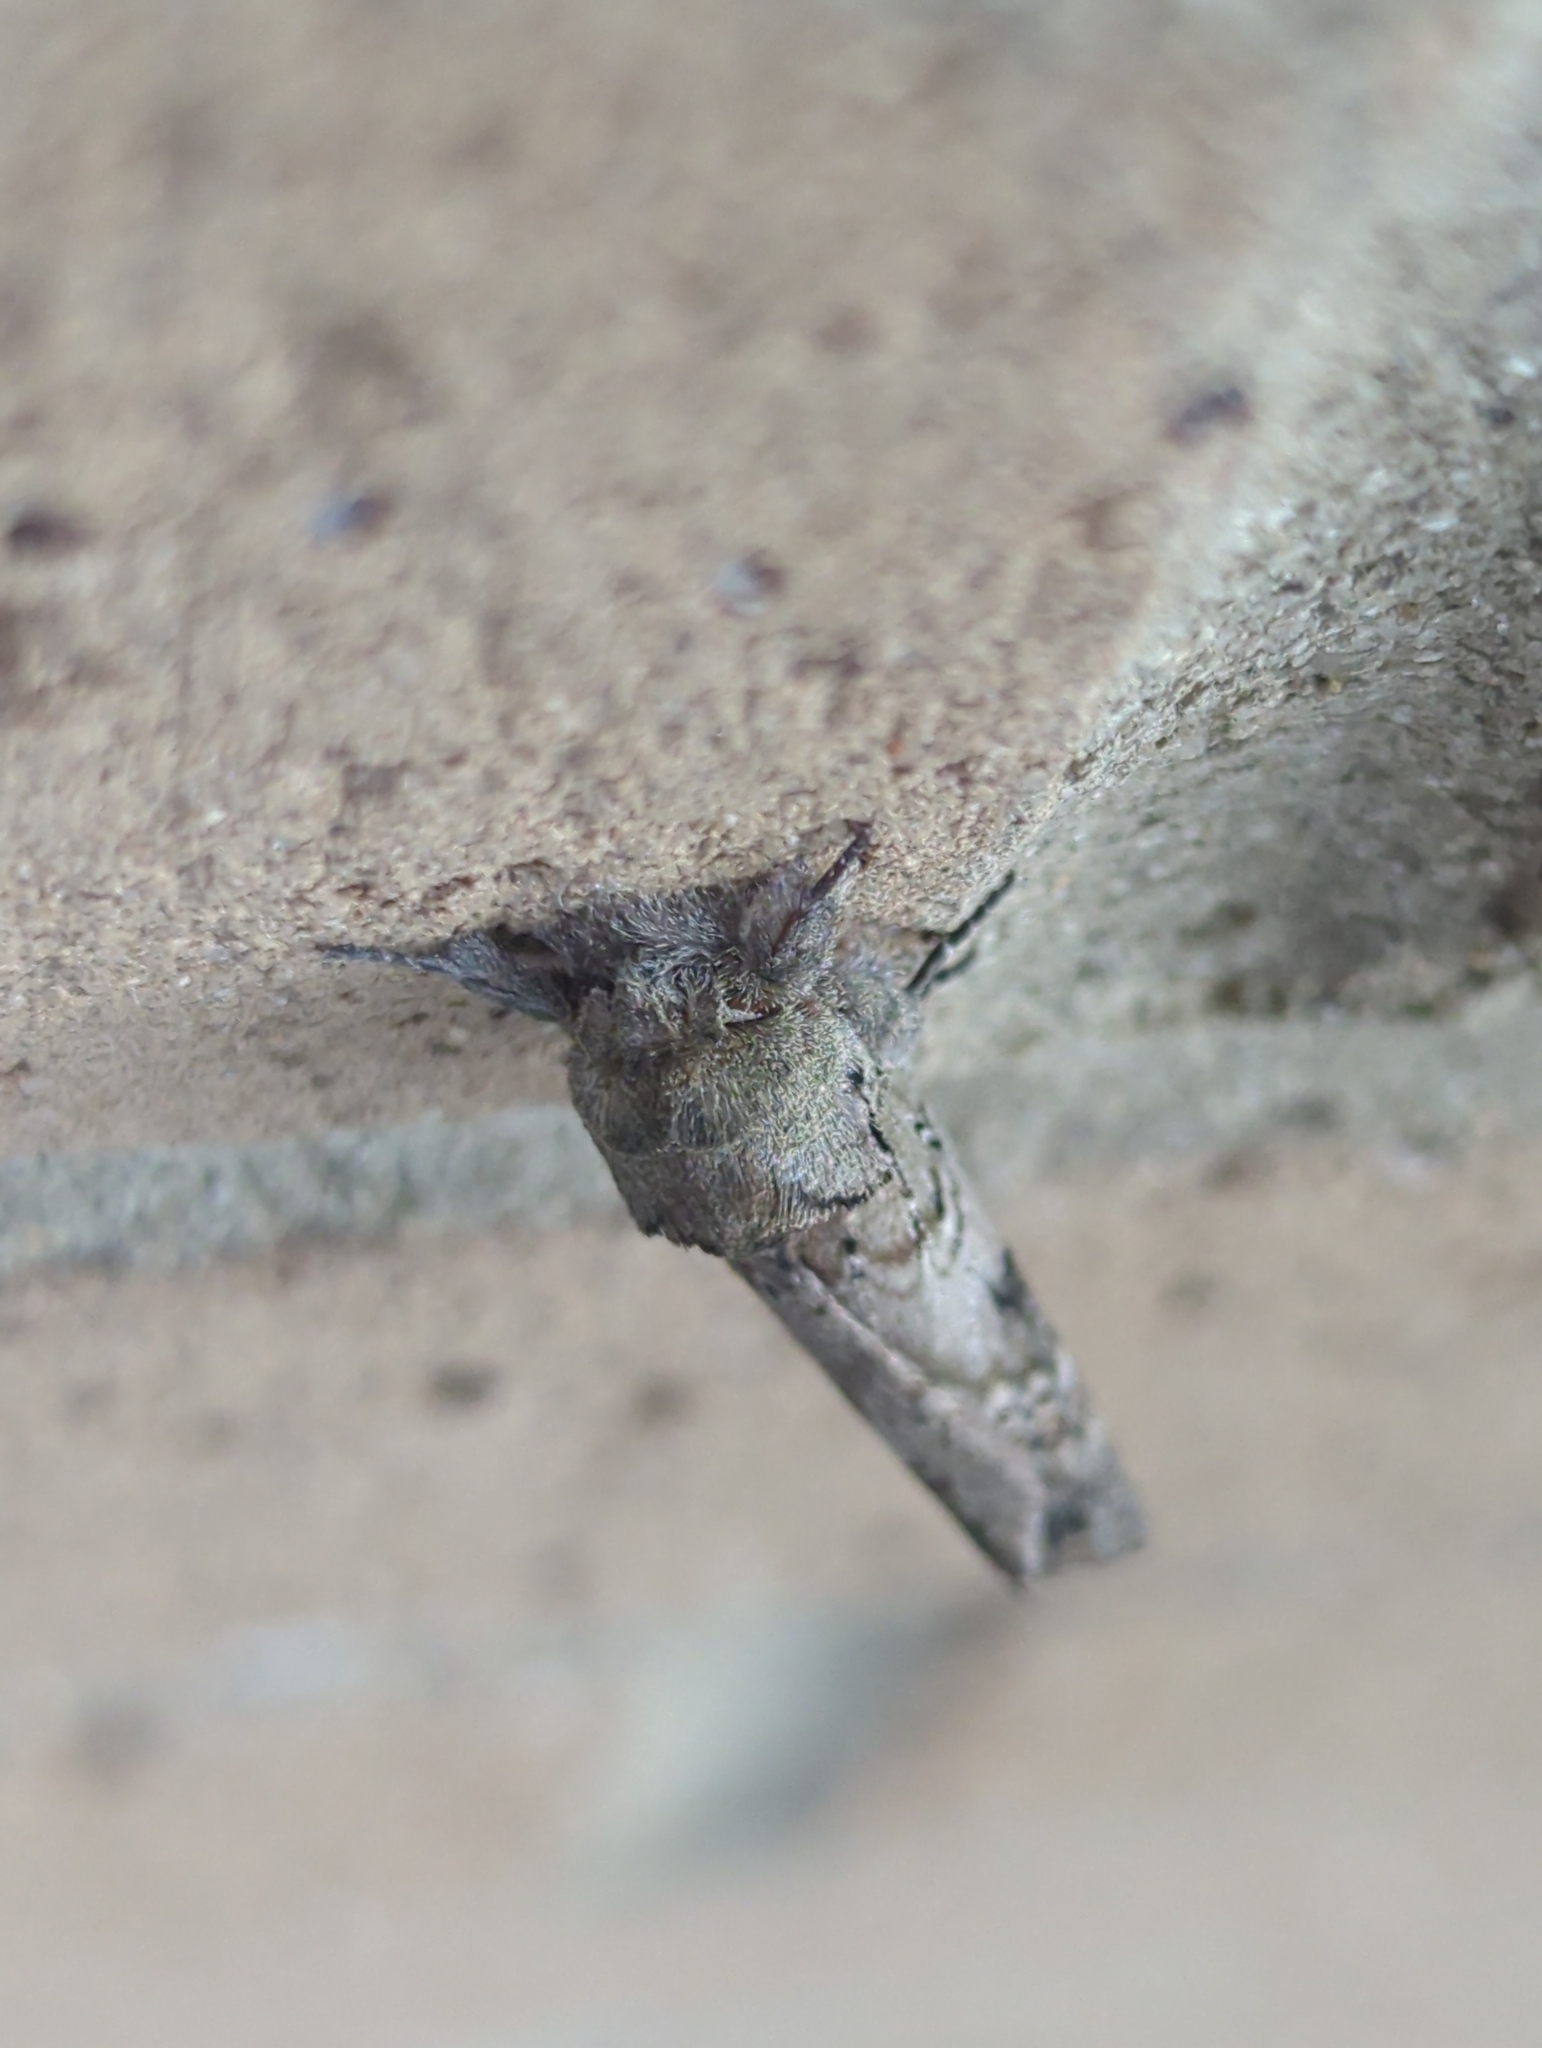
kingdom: Animalia
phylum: Arthropoda
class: Insecta
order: Lepidoptera
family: Notodontidae
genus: Schizura
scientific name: Schizura
